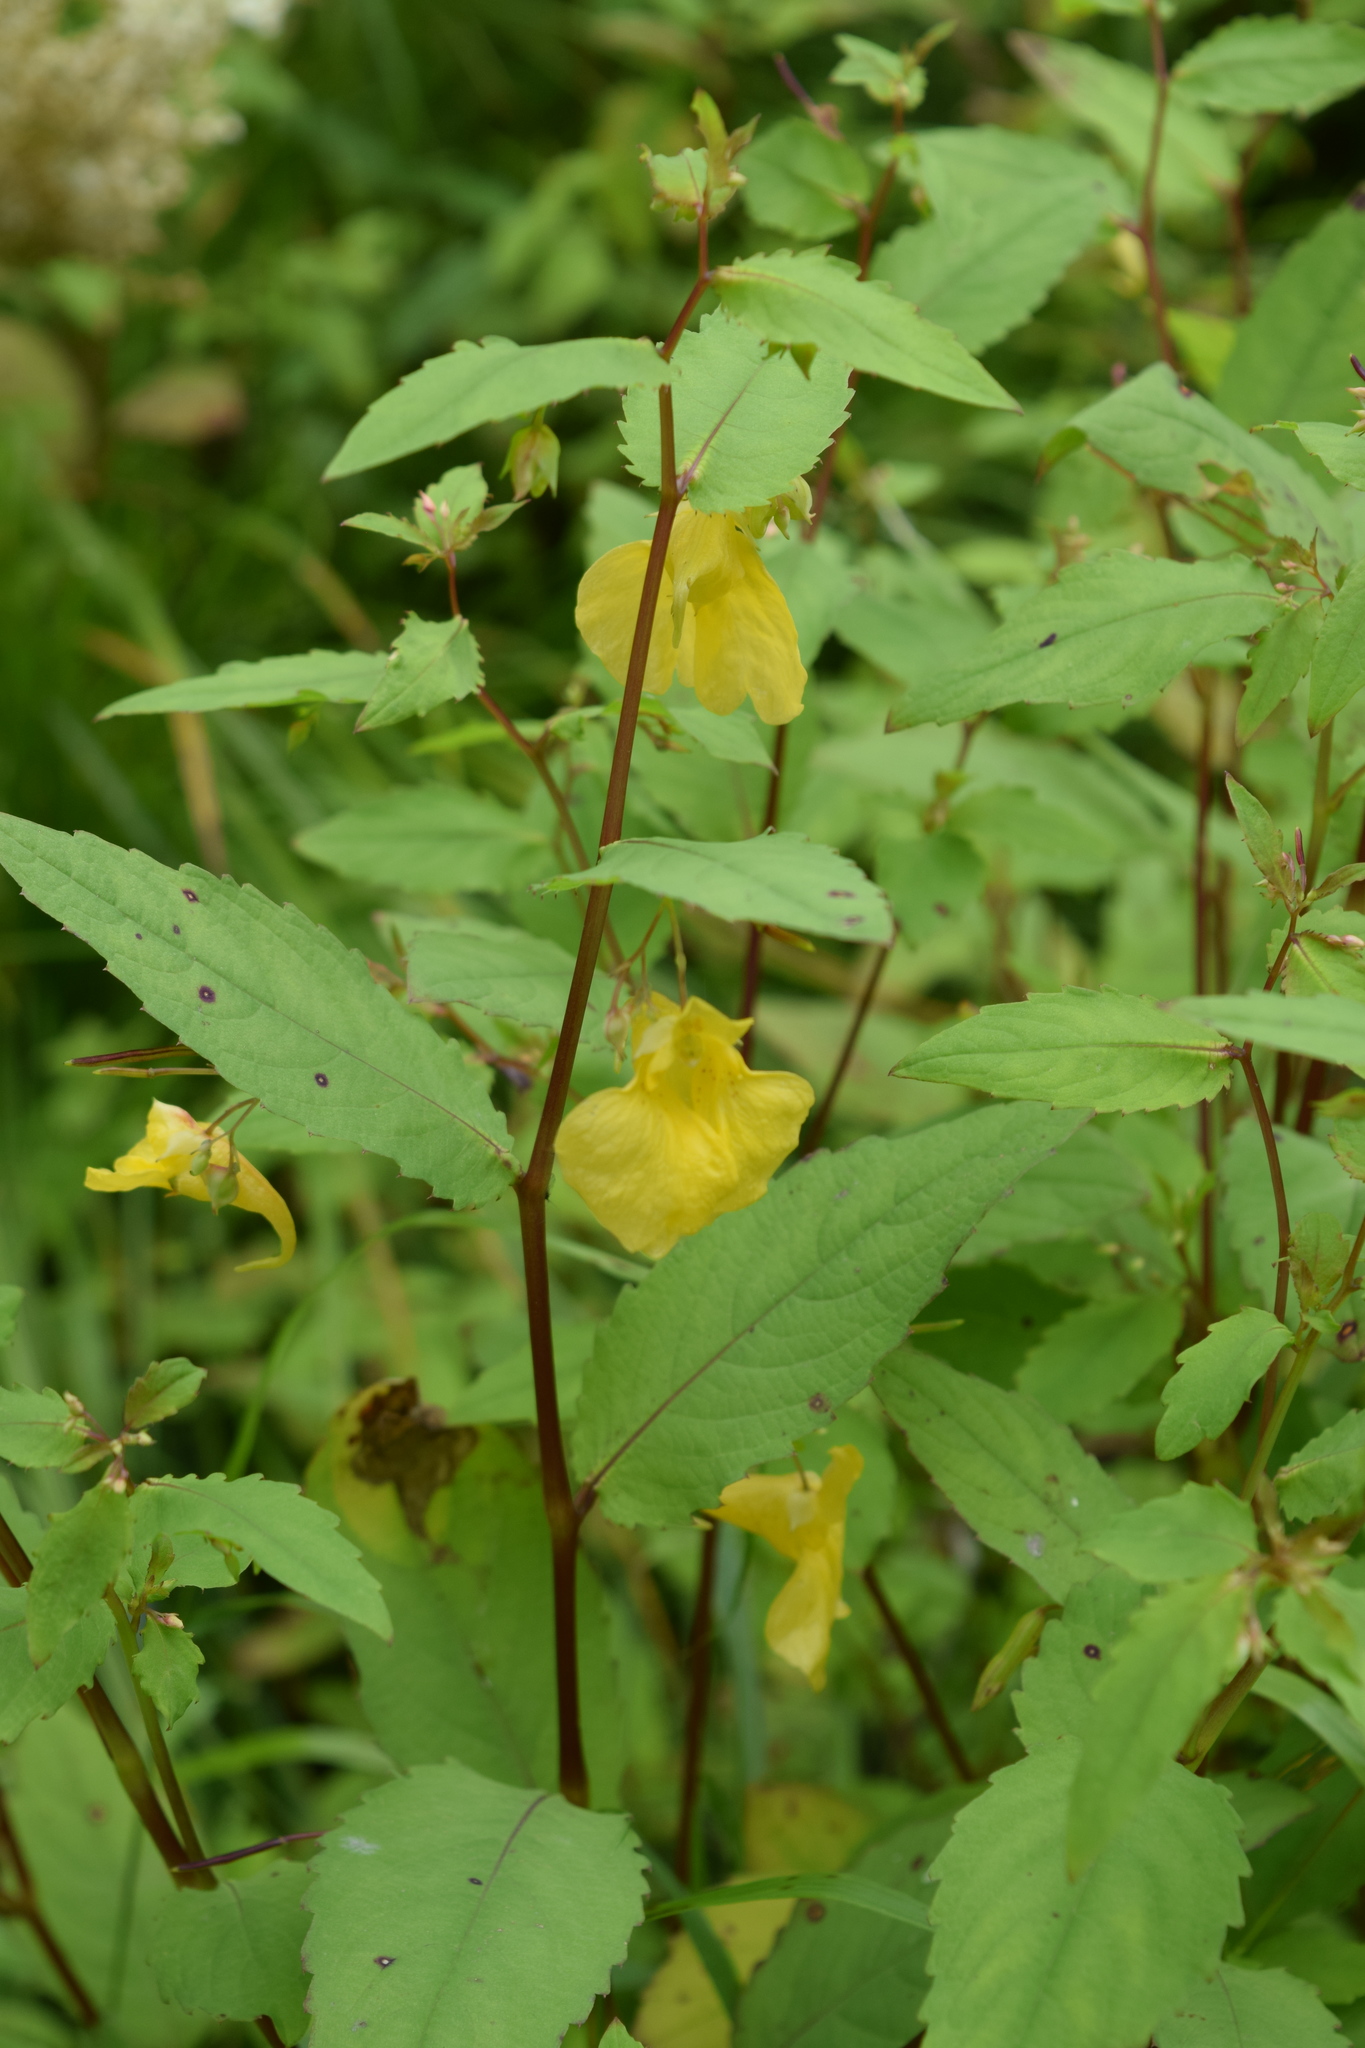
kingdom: Plantae
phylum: Tracheophyta
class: Magnoliopsida
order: Ericales
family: Balsaminaceae
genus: Impatiens
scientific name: Impatiens noli-tangere
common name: Touch-me-not balsam
